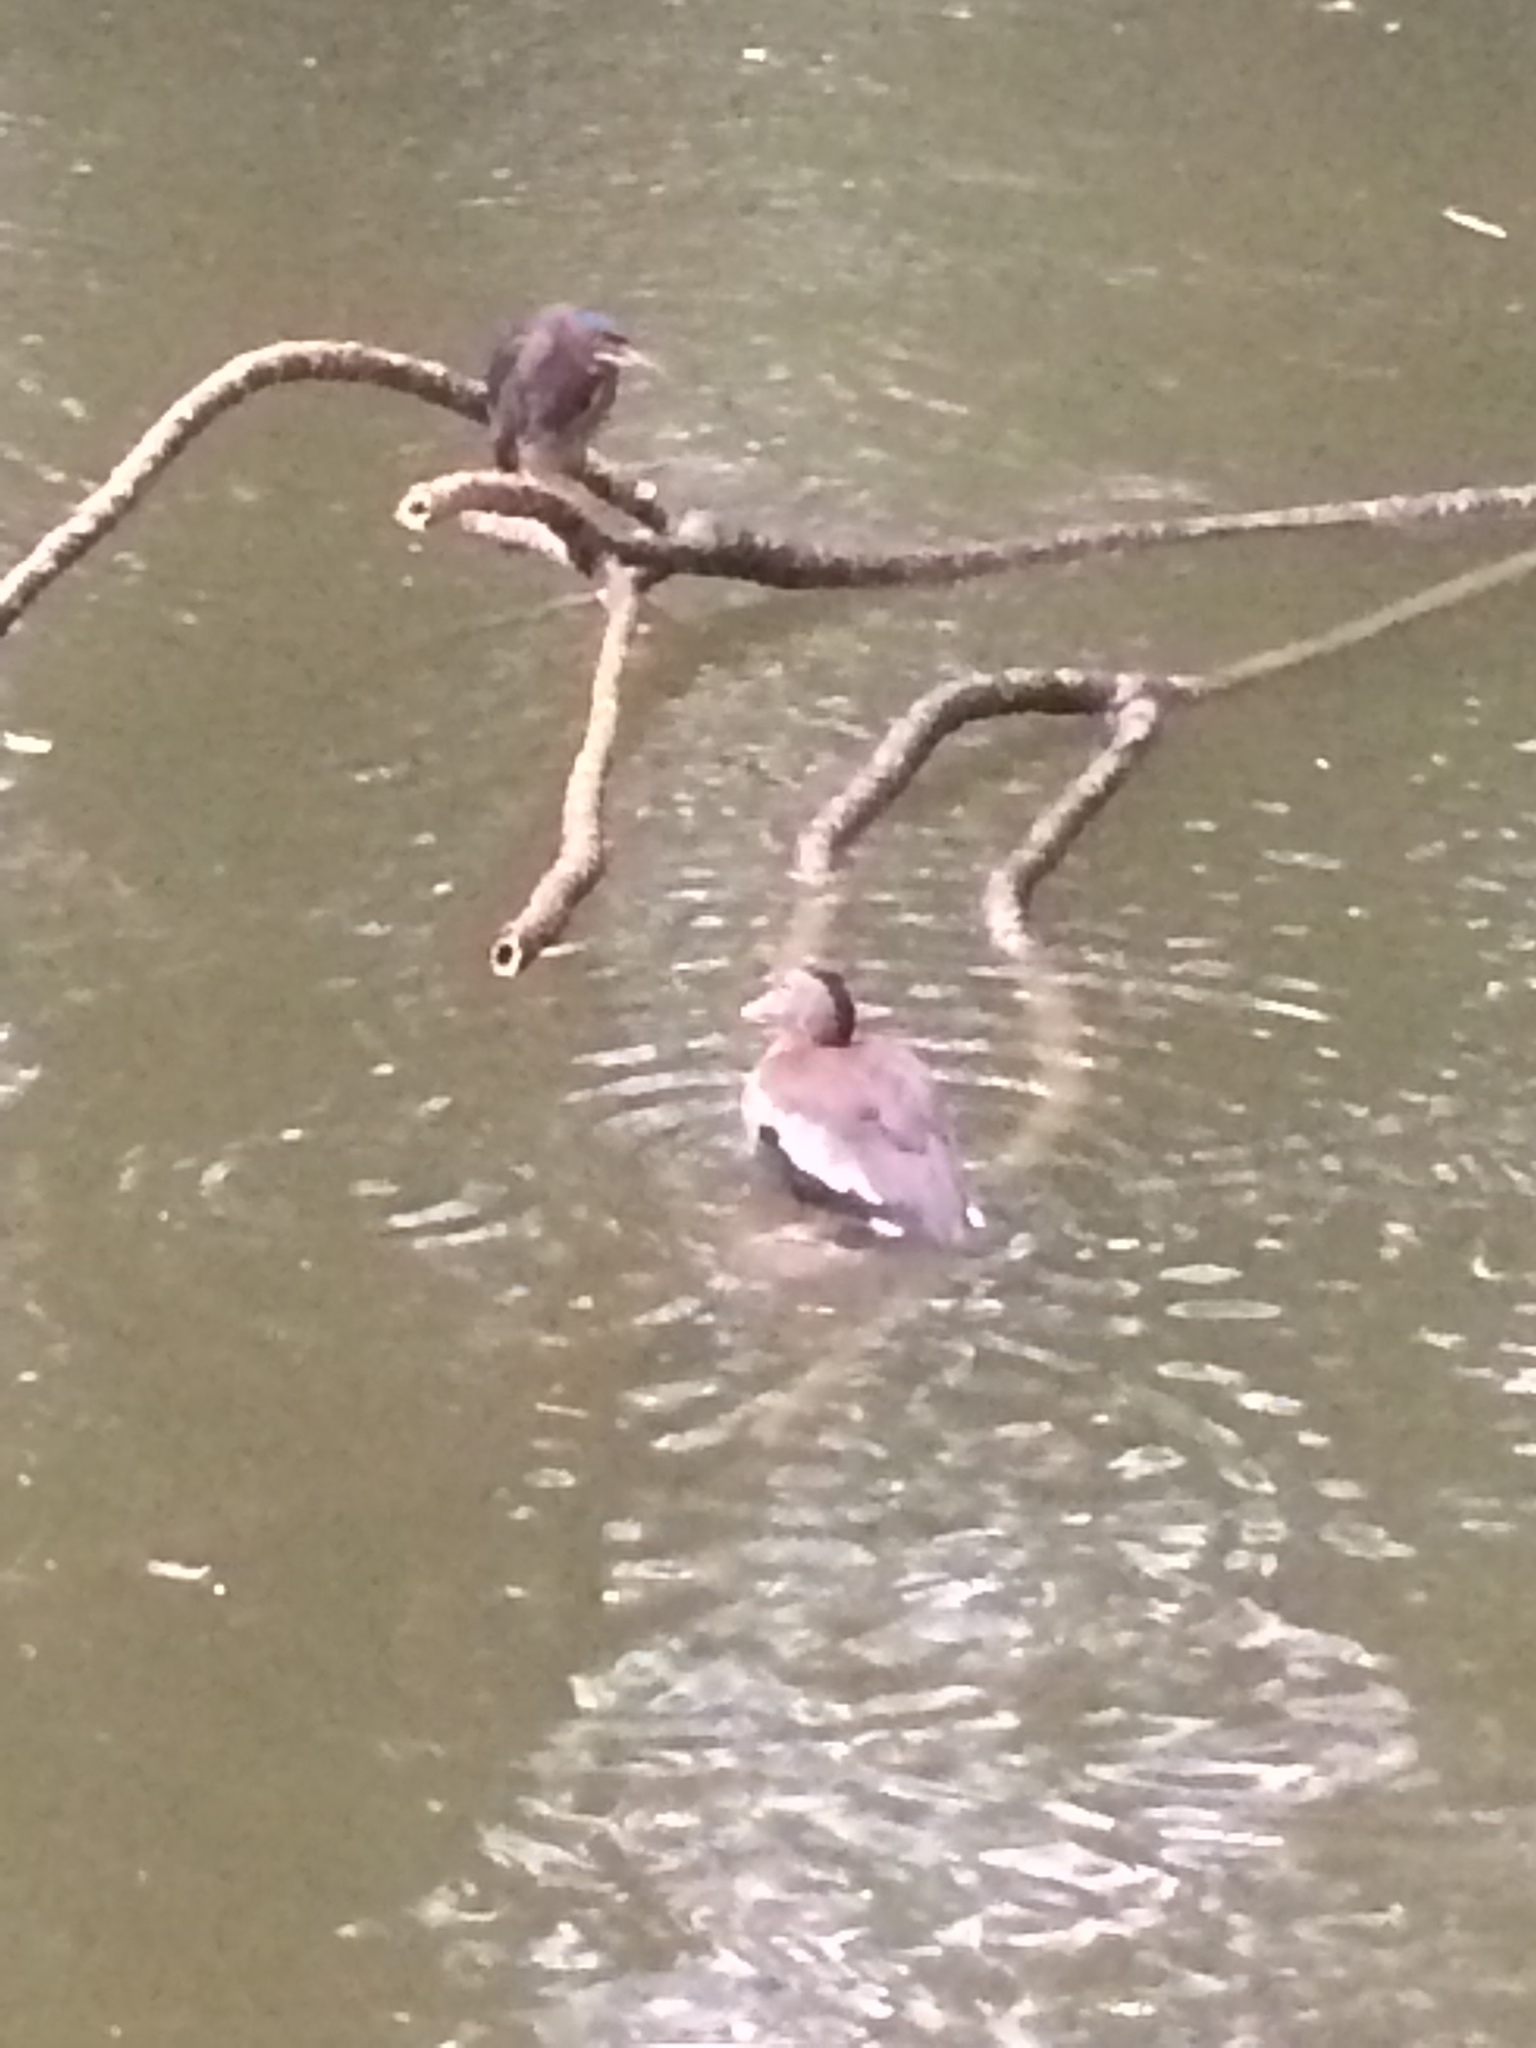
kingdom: Animalia
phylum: Chordata
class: Aves
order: Anseriformes
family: Anatidae
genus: Dendrocygna
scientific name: Dendrocygna autumnalis
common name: Black-bellied whistling duck
